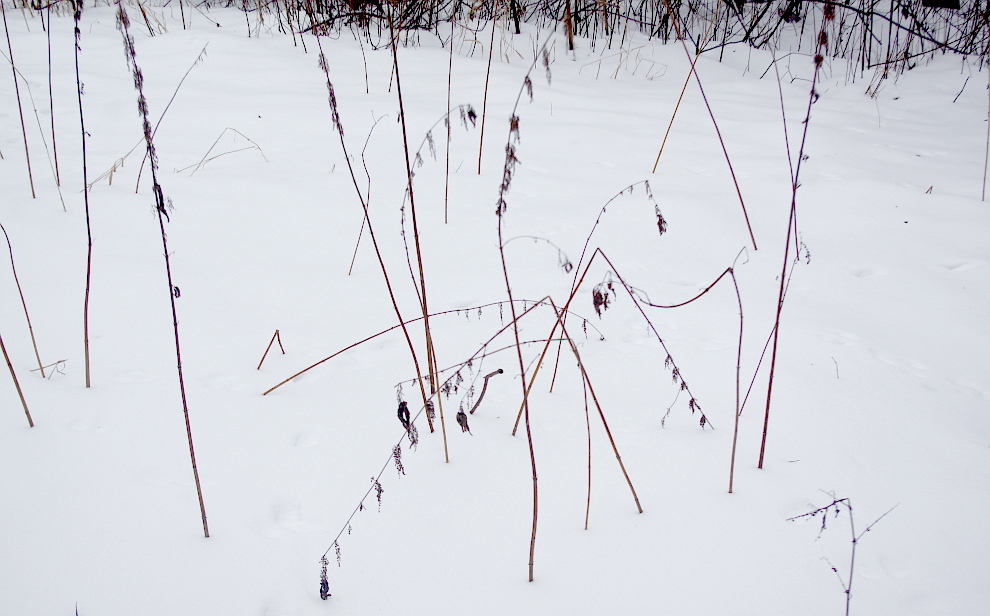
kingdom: Plantae
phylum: Tracheophyta
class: Magnoliopsida
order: Rosales
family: Urticaceae
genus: Urtica
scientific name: Urtica dioica
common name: Common nettle
